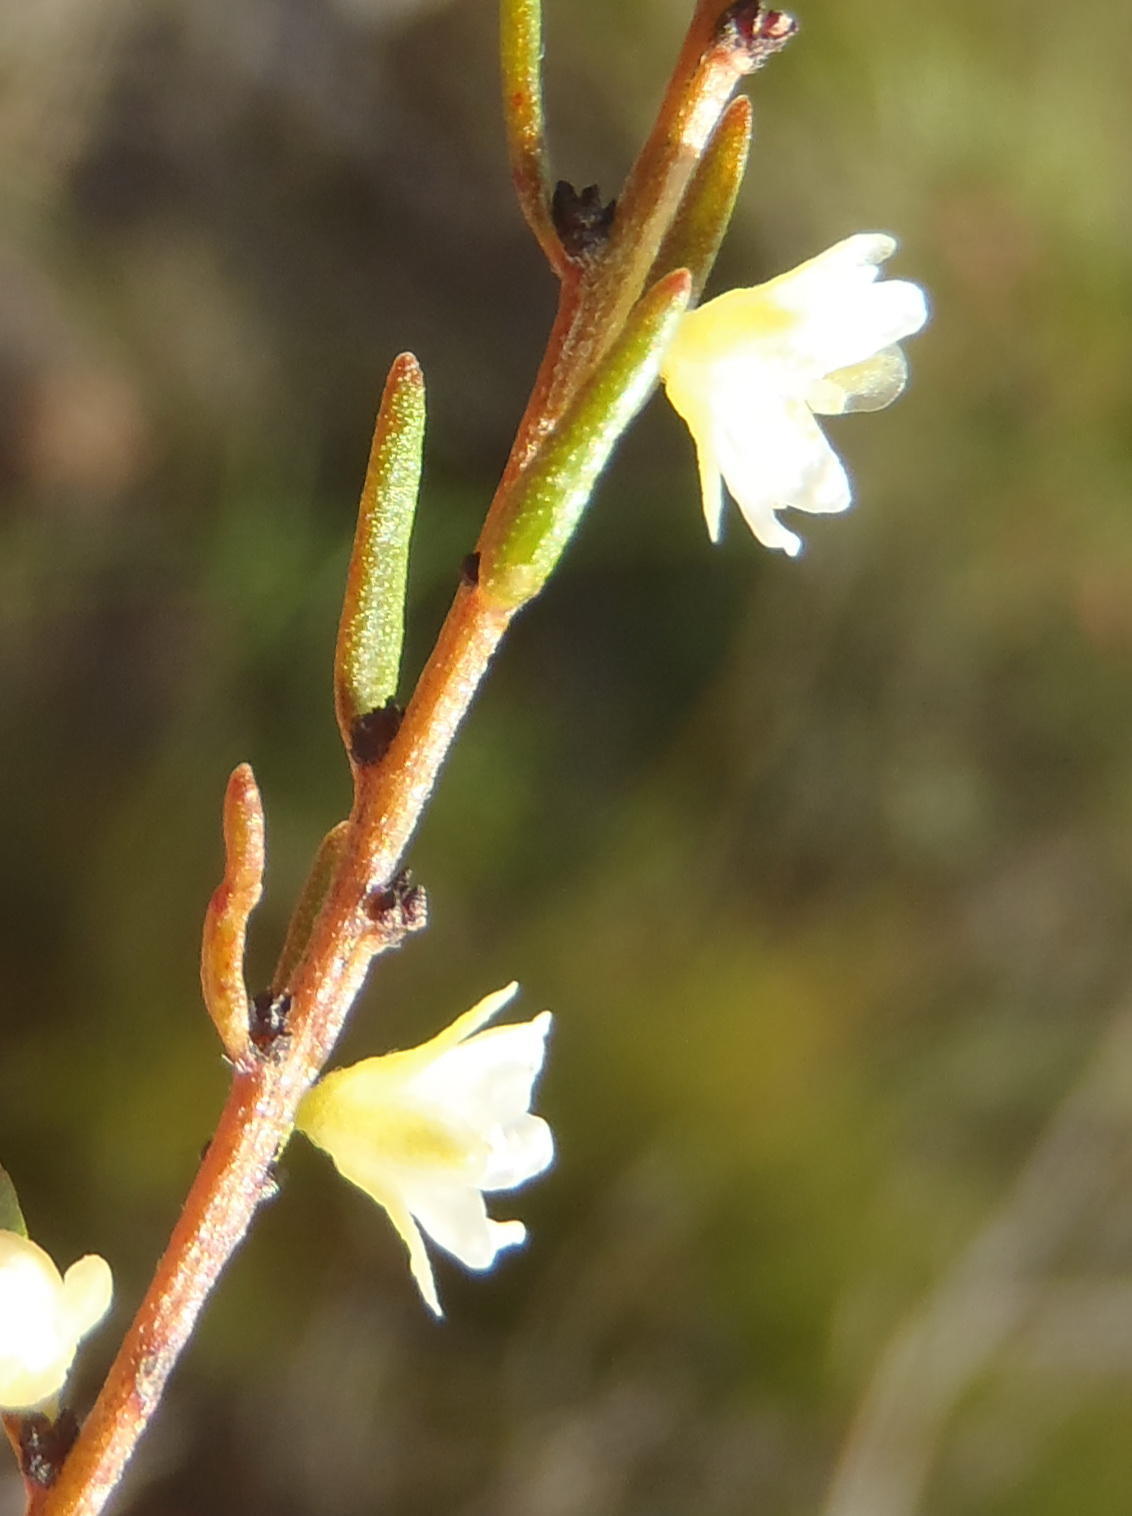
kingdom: Plantae
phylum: Tracheophyta
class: Magnoliopsida
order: Malpighiales
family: Peraceae
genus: Clutia
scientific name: Clutia ericoides
